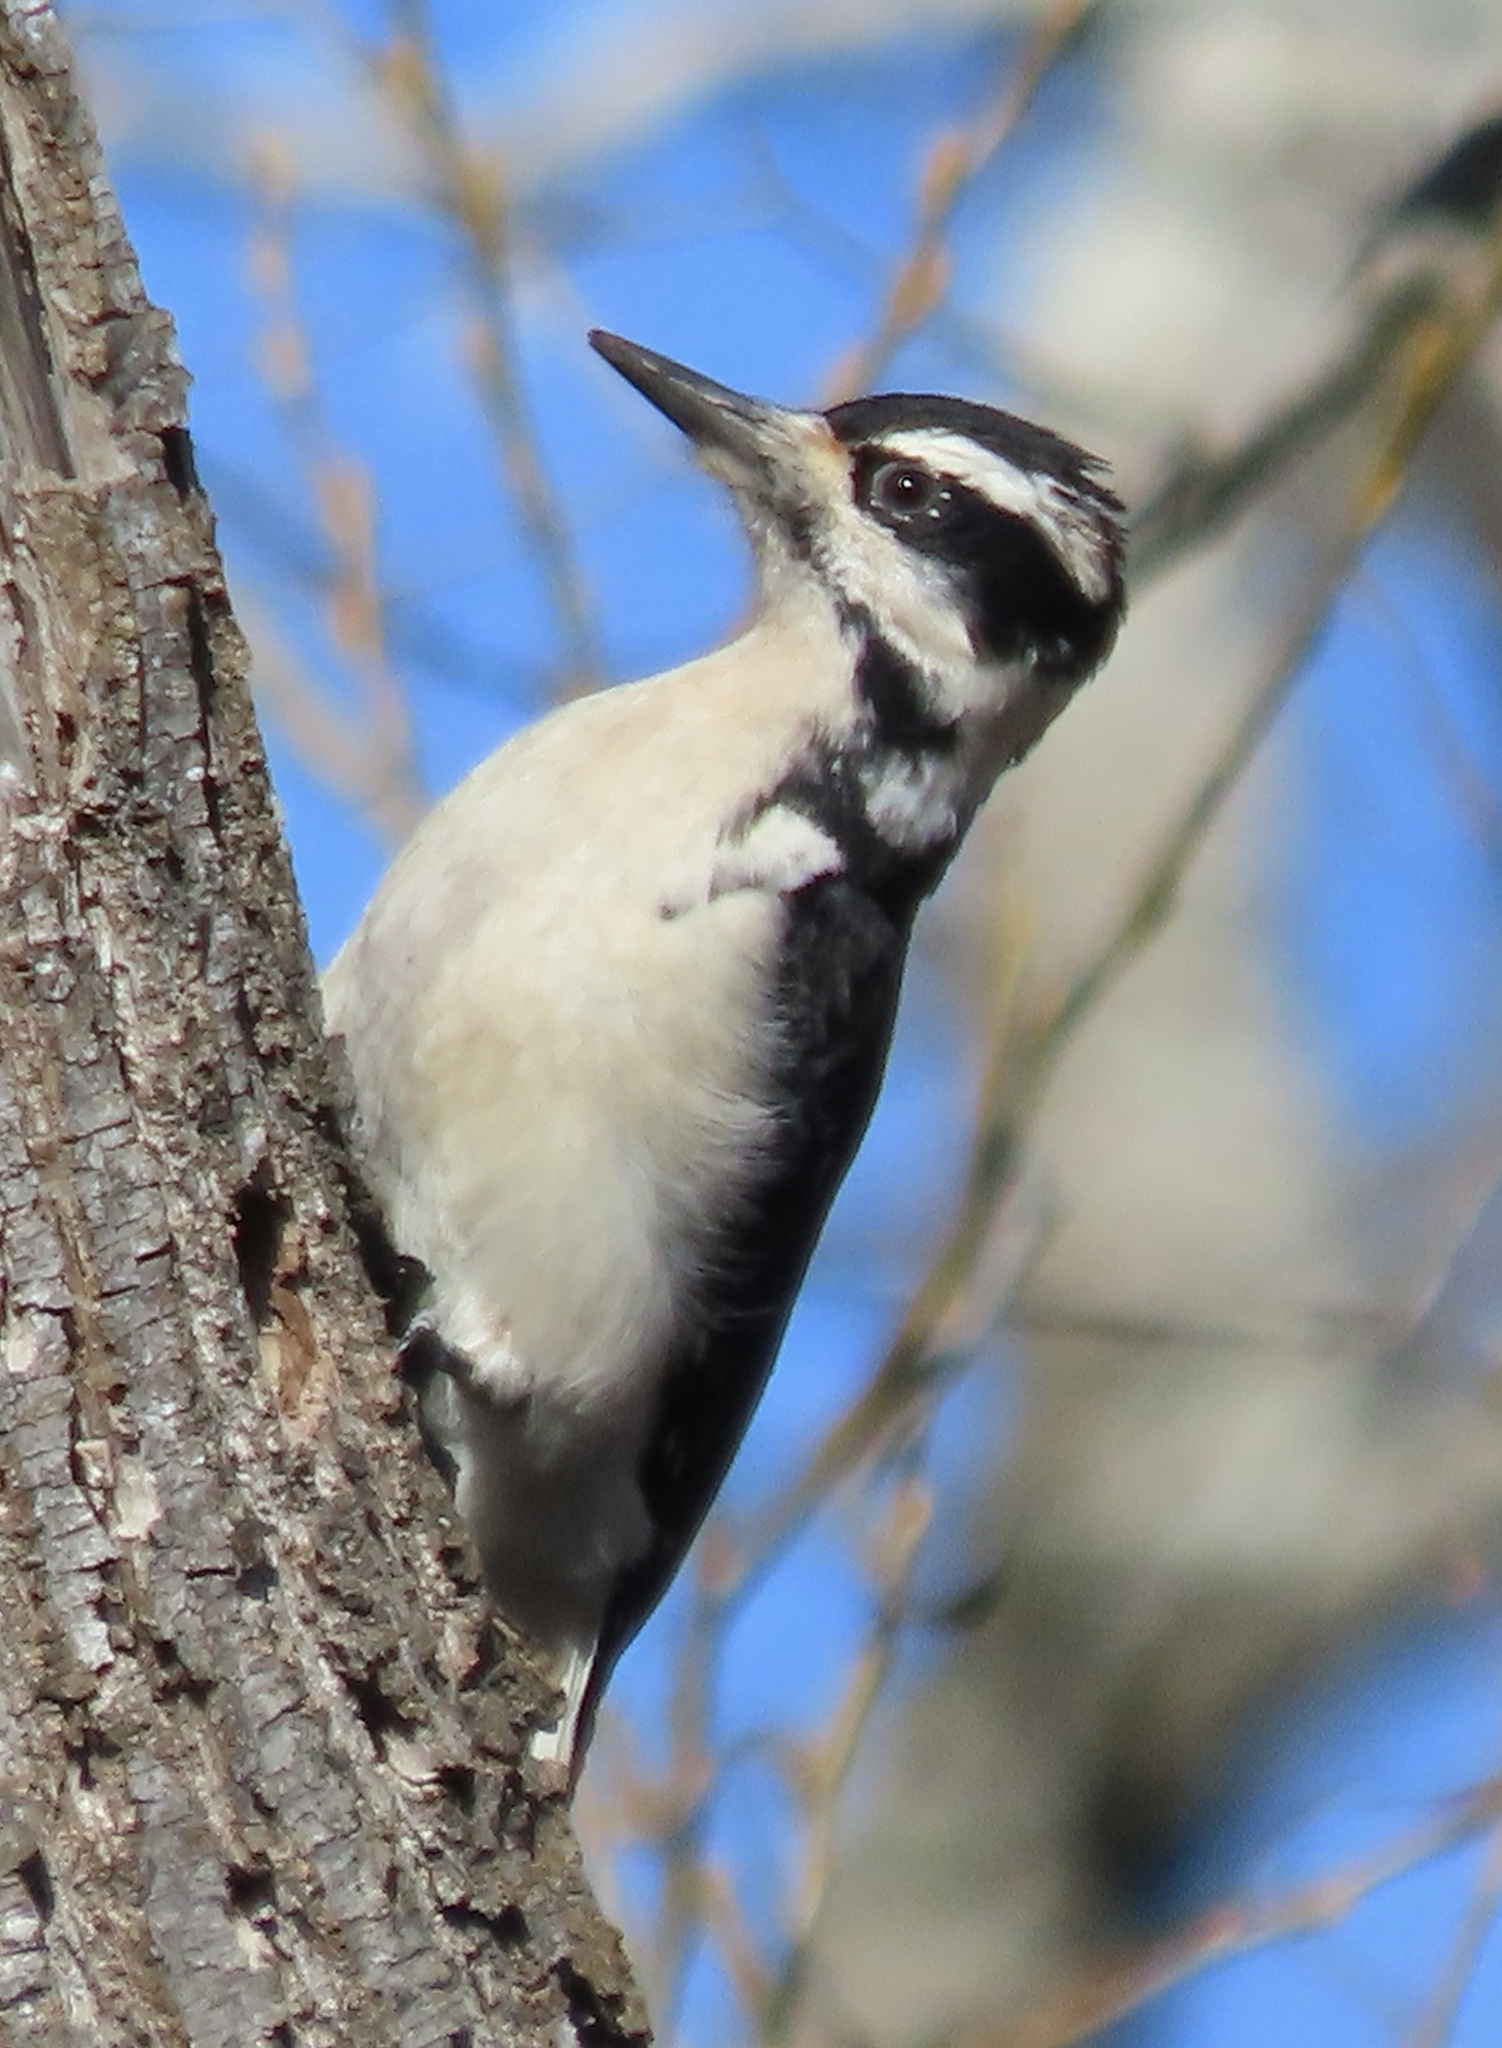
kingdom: Animalia
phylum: Chordata
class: Aves
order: Piciformes
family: Picidae
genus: Leuconotopicus
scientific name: Leuconotopicus villosus
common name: Hairy woodpecker
